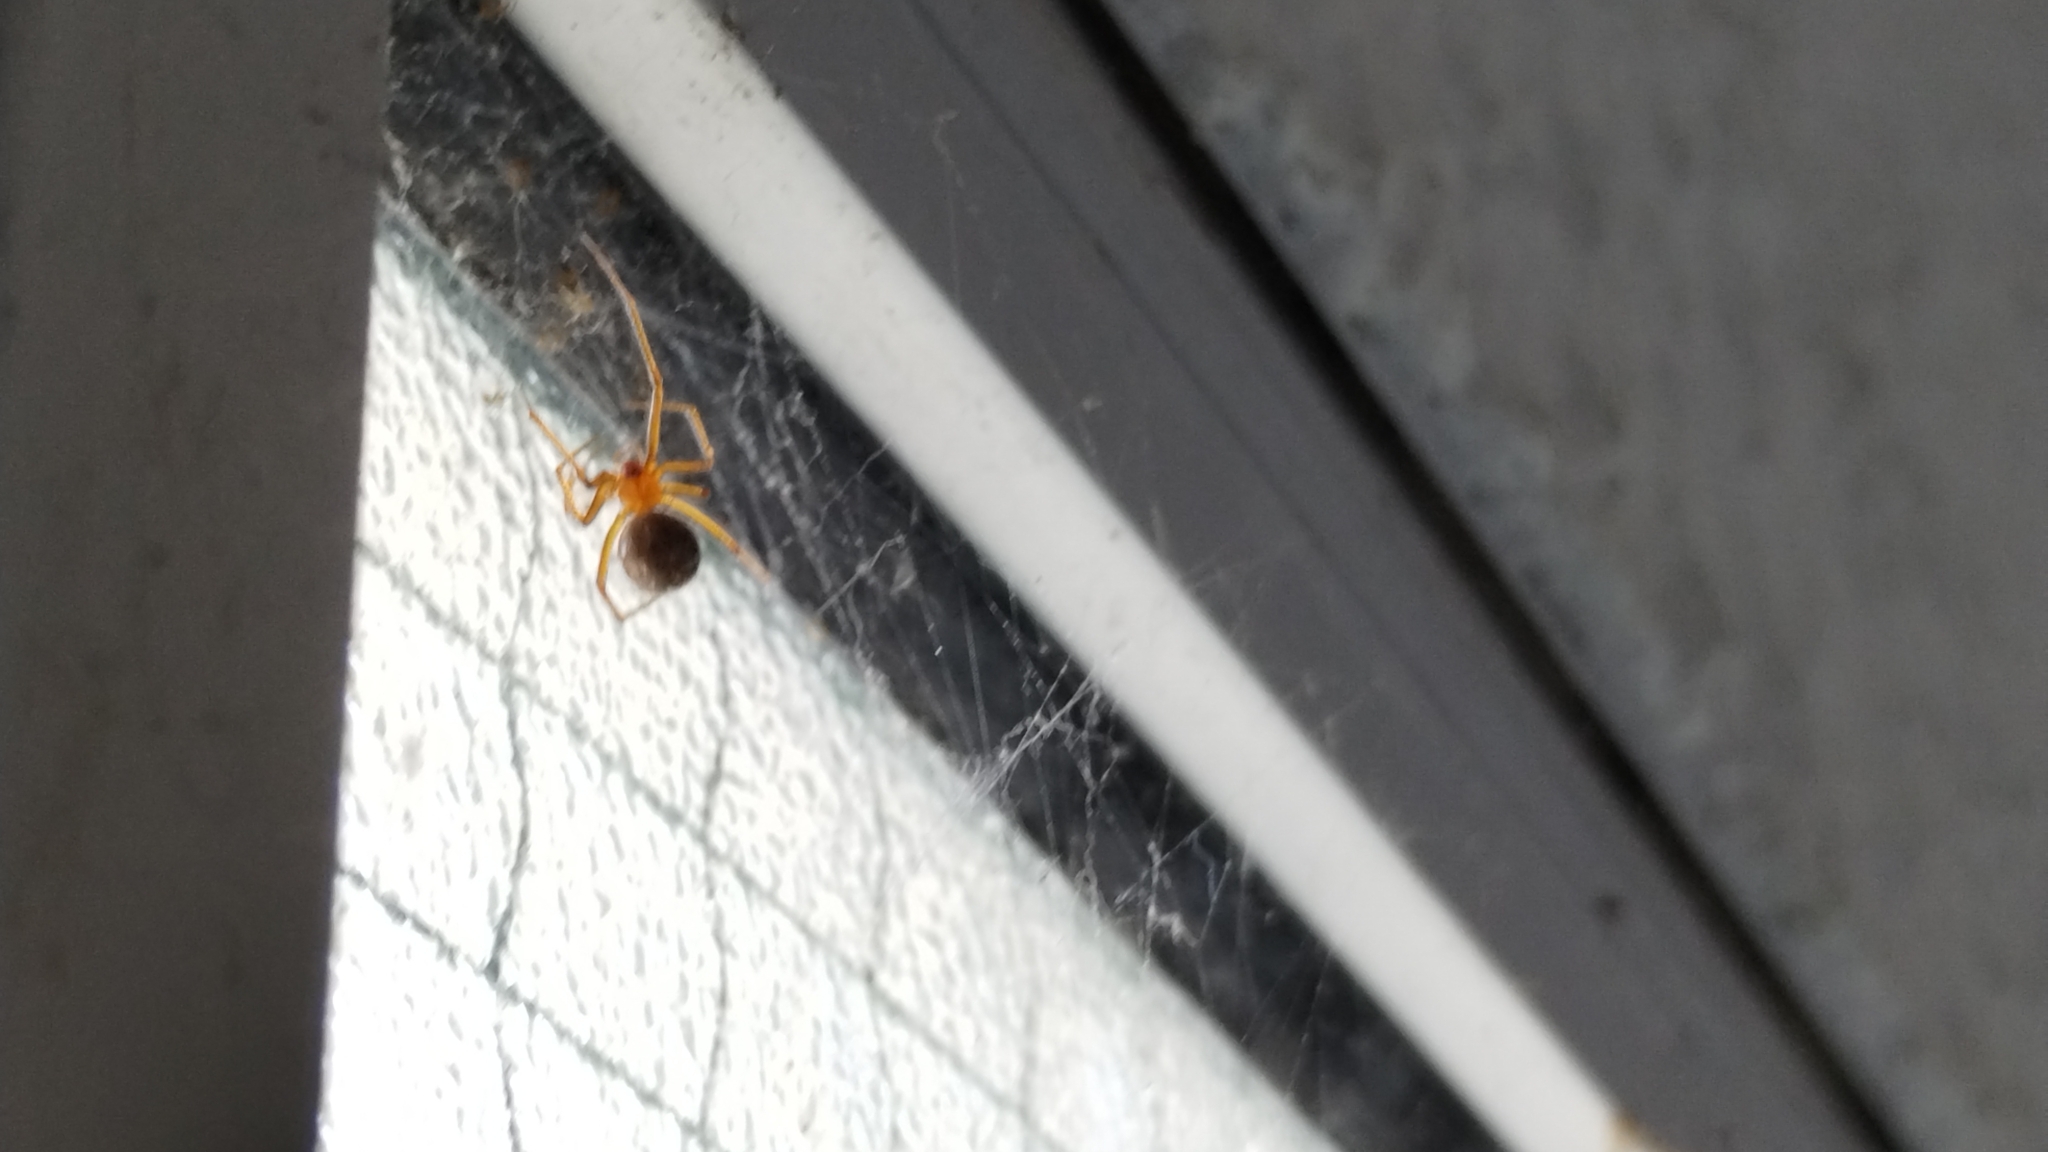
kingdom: Animalia
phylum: Arthropoda
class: Arachnida
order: Araneae
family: Theridiidae
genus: Nesticodes
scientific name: Nesticodes rufipes
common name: Cobweb spiders
